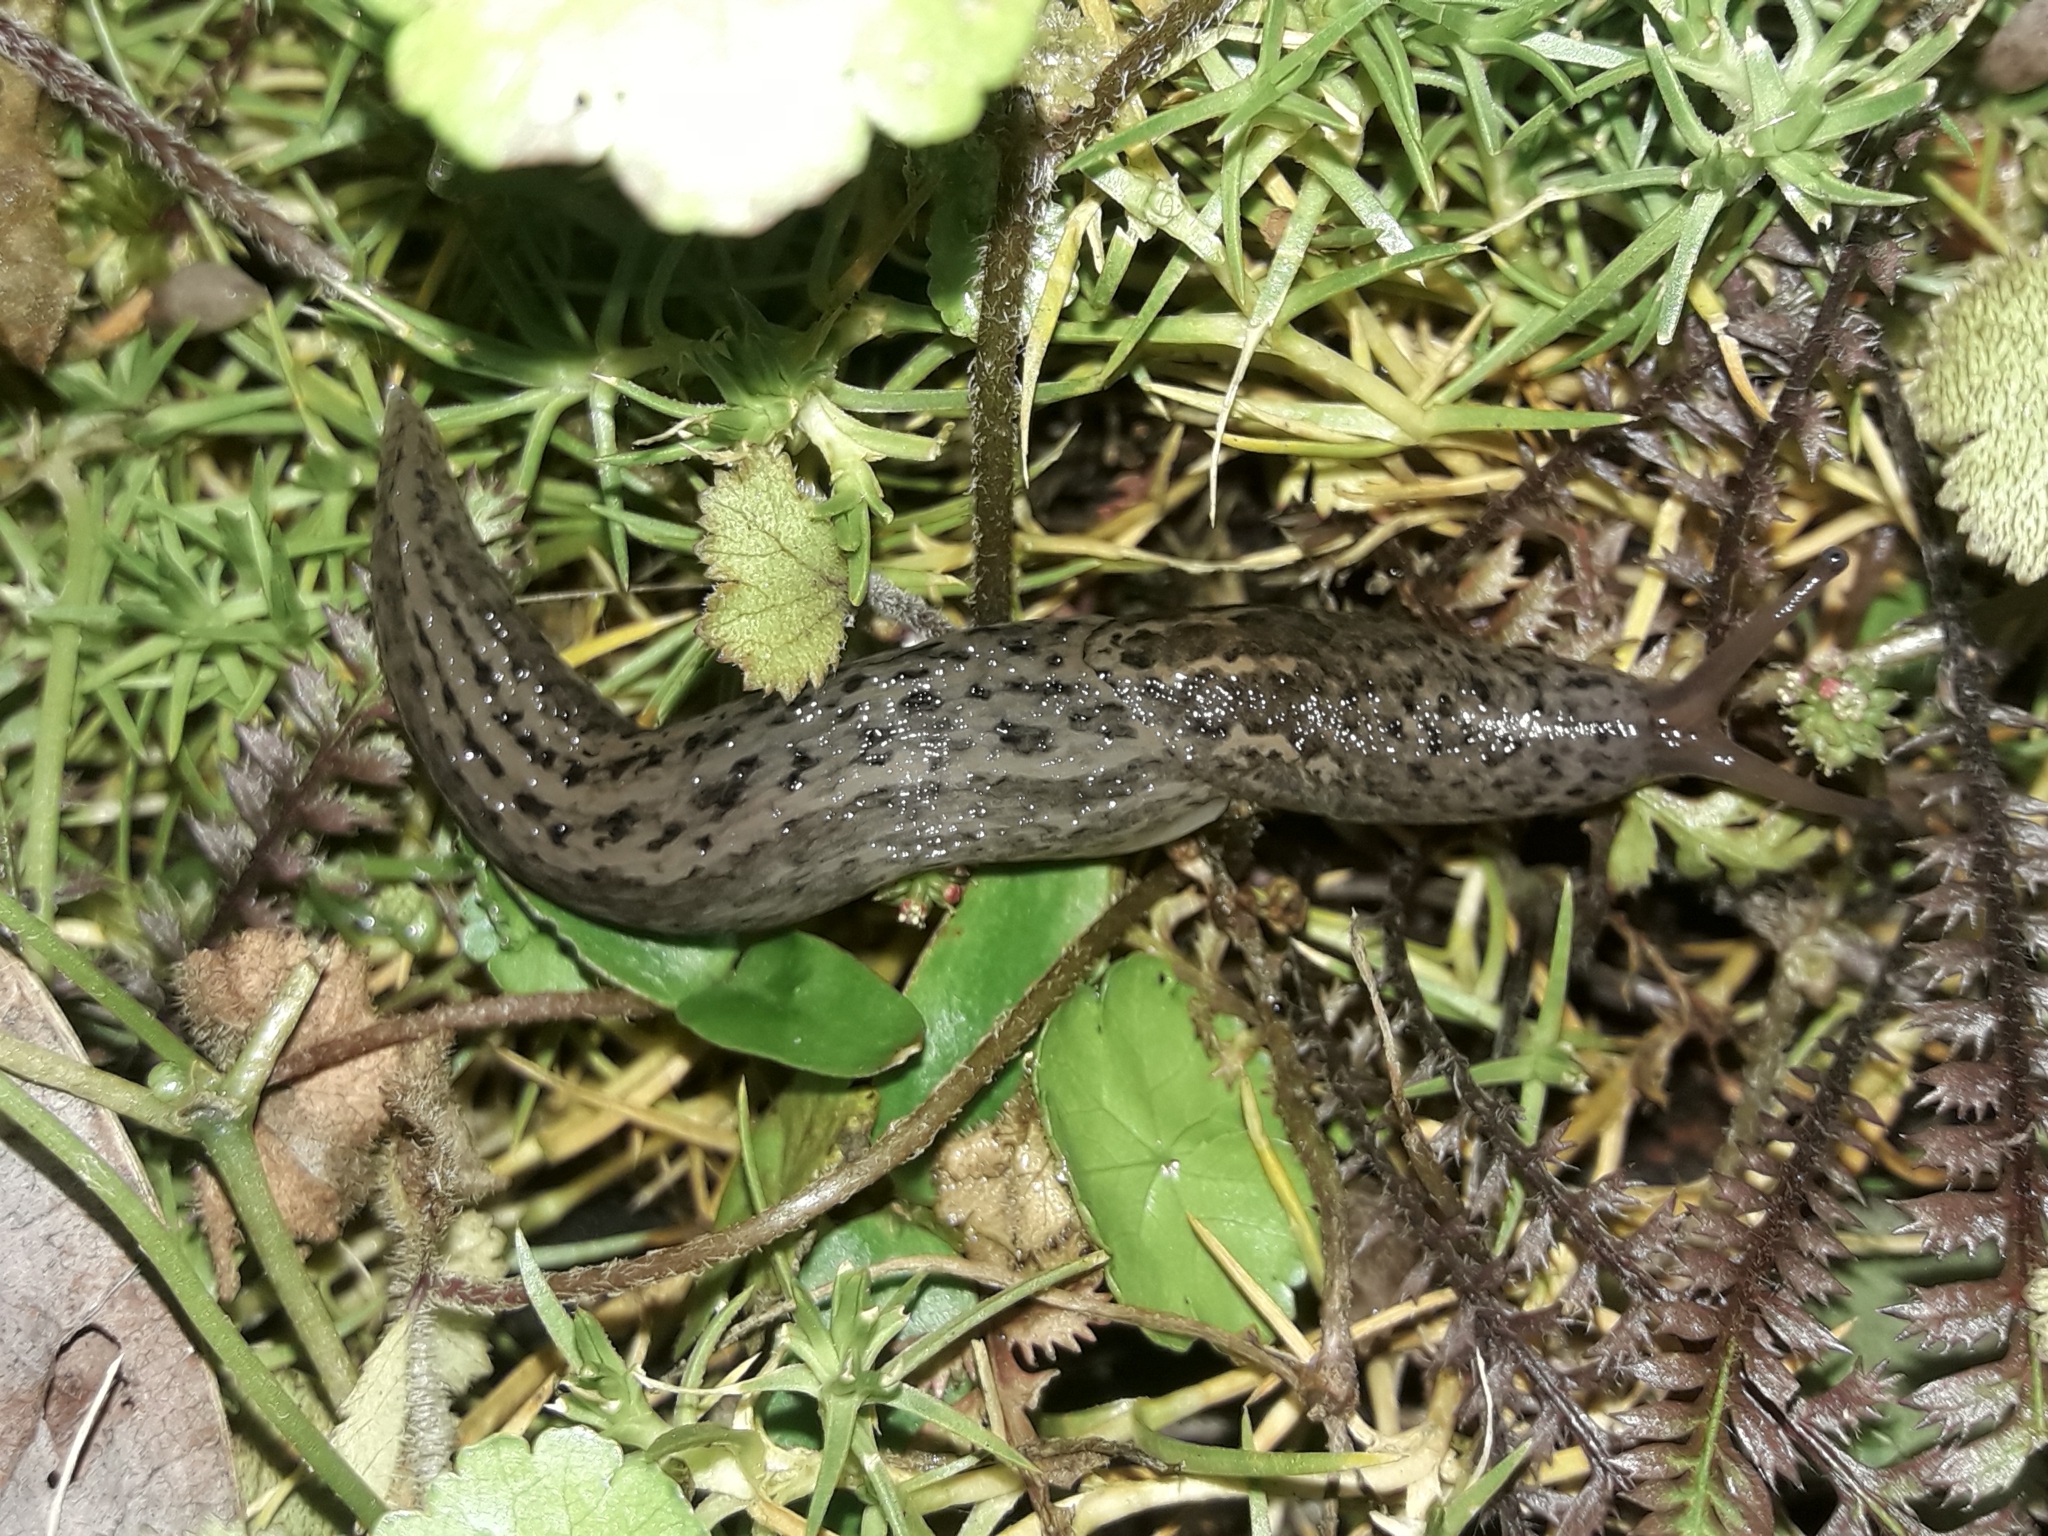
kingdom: Animalia
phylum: Mollusca
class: Gastropoda
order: Stylommatophora
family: Limacidae
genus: Limax
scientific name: Limax maximus
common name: Great grey slug
